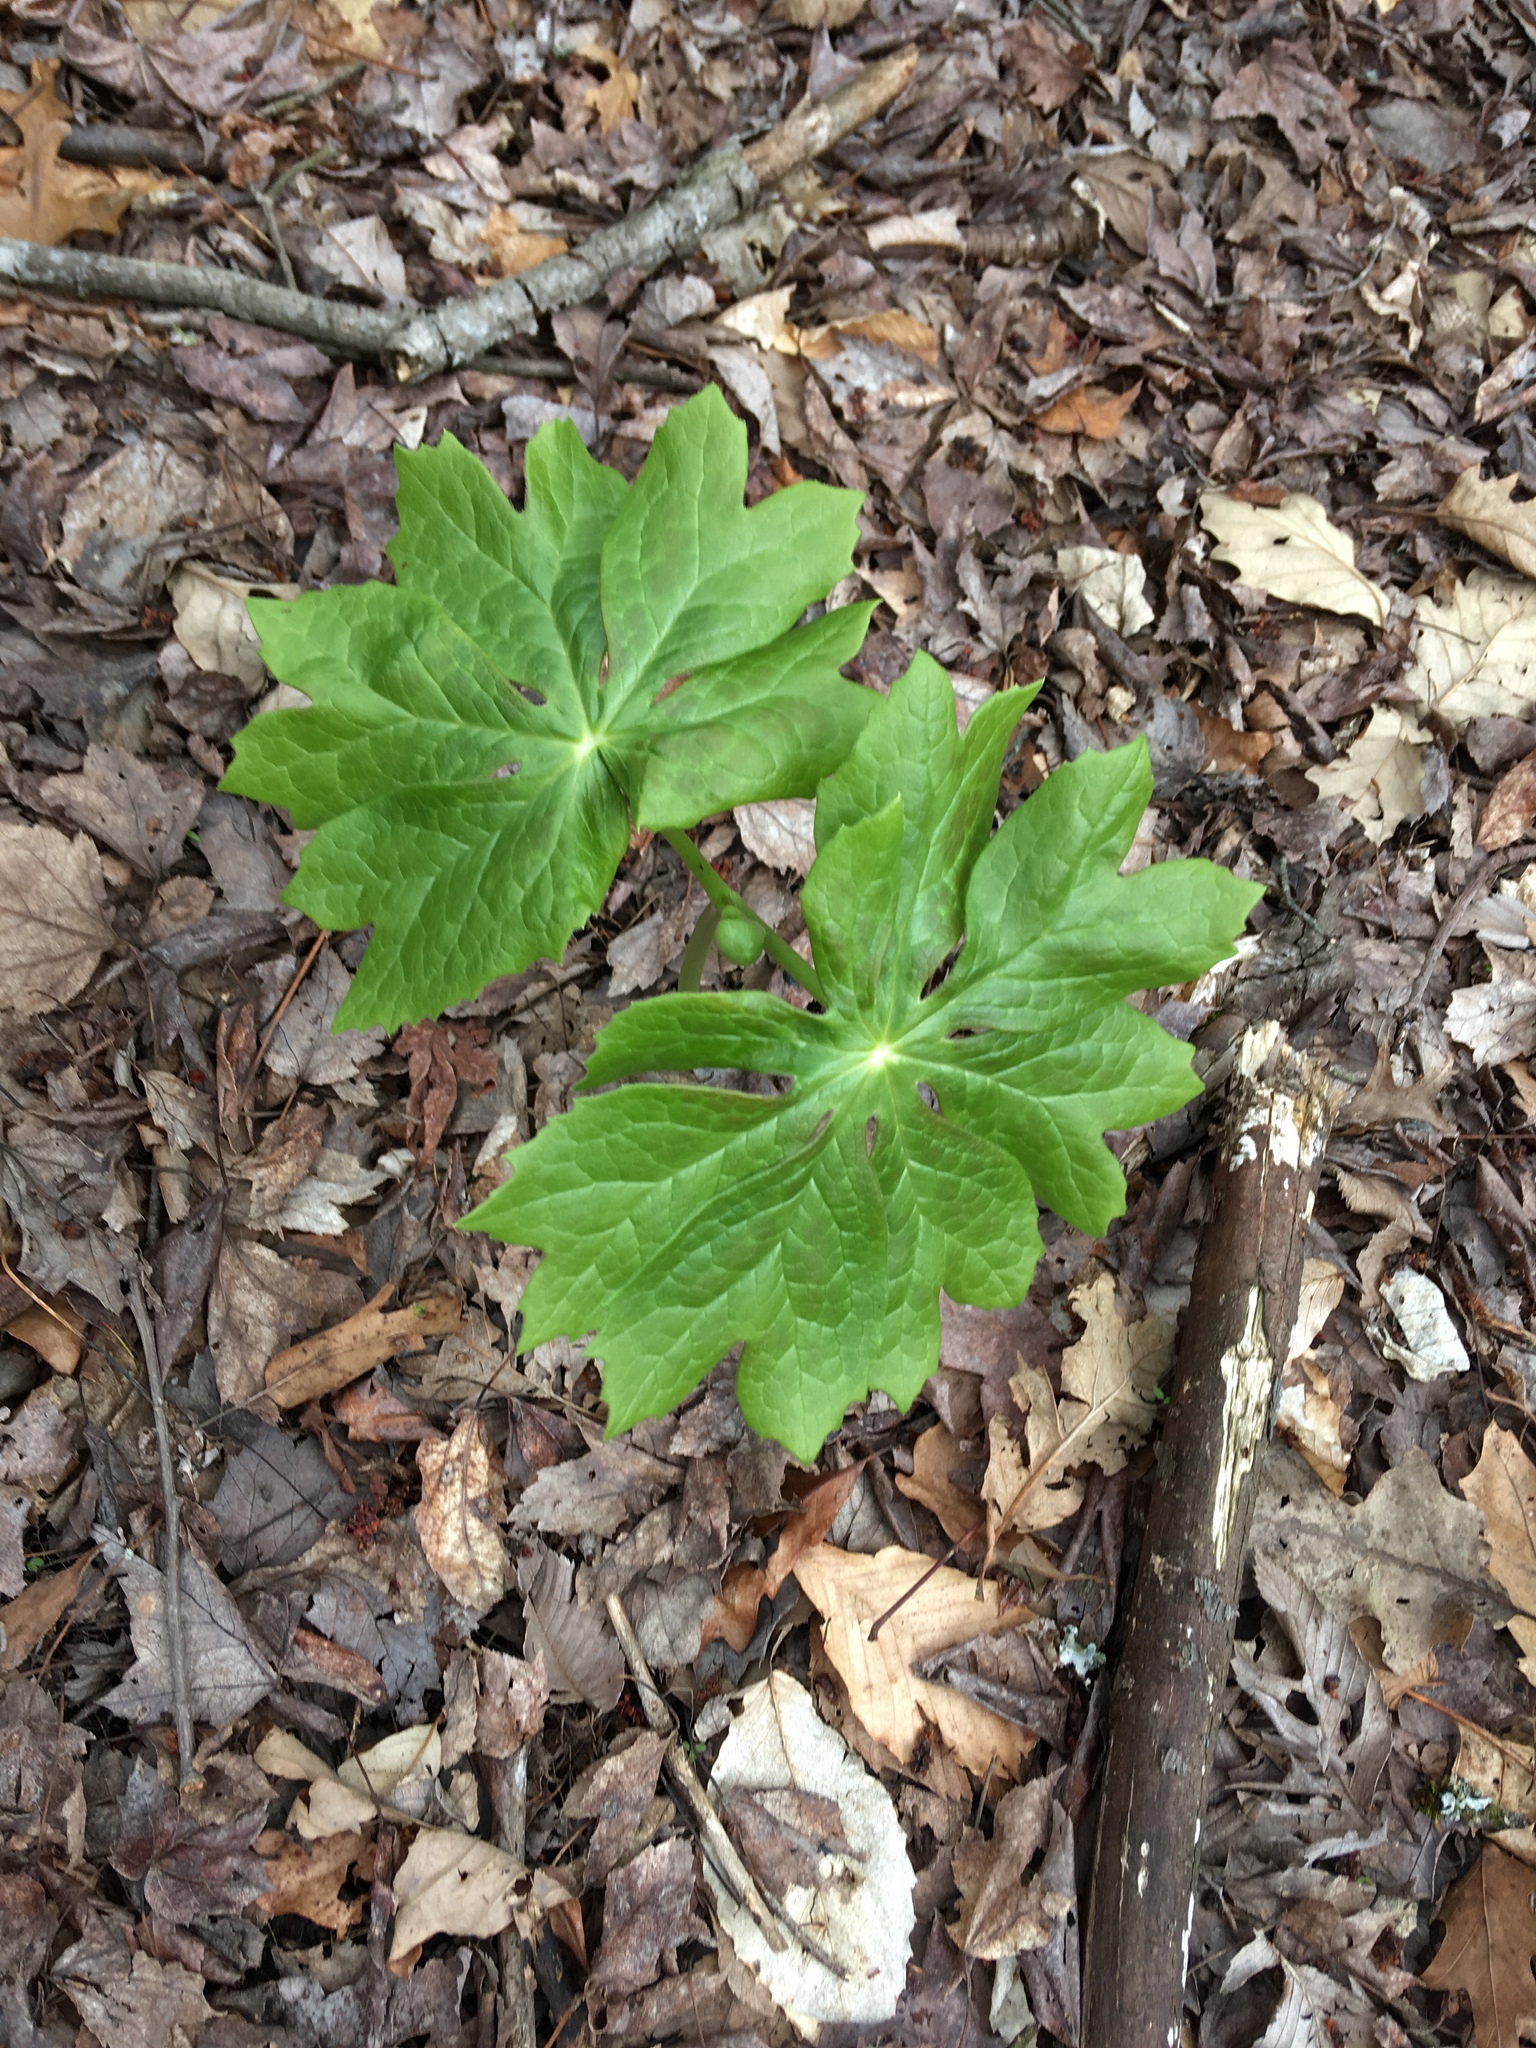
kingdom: Plantae
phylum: Tracheophyta
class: Magnoliopsida
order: Ranunculales
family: Berberidaceae
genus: Podophyllum
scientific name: Podophyllum peltatum
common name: Wild mandrake
